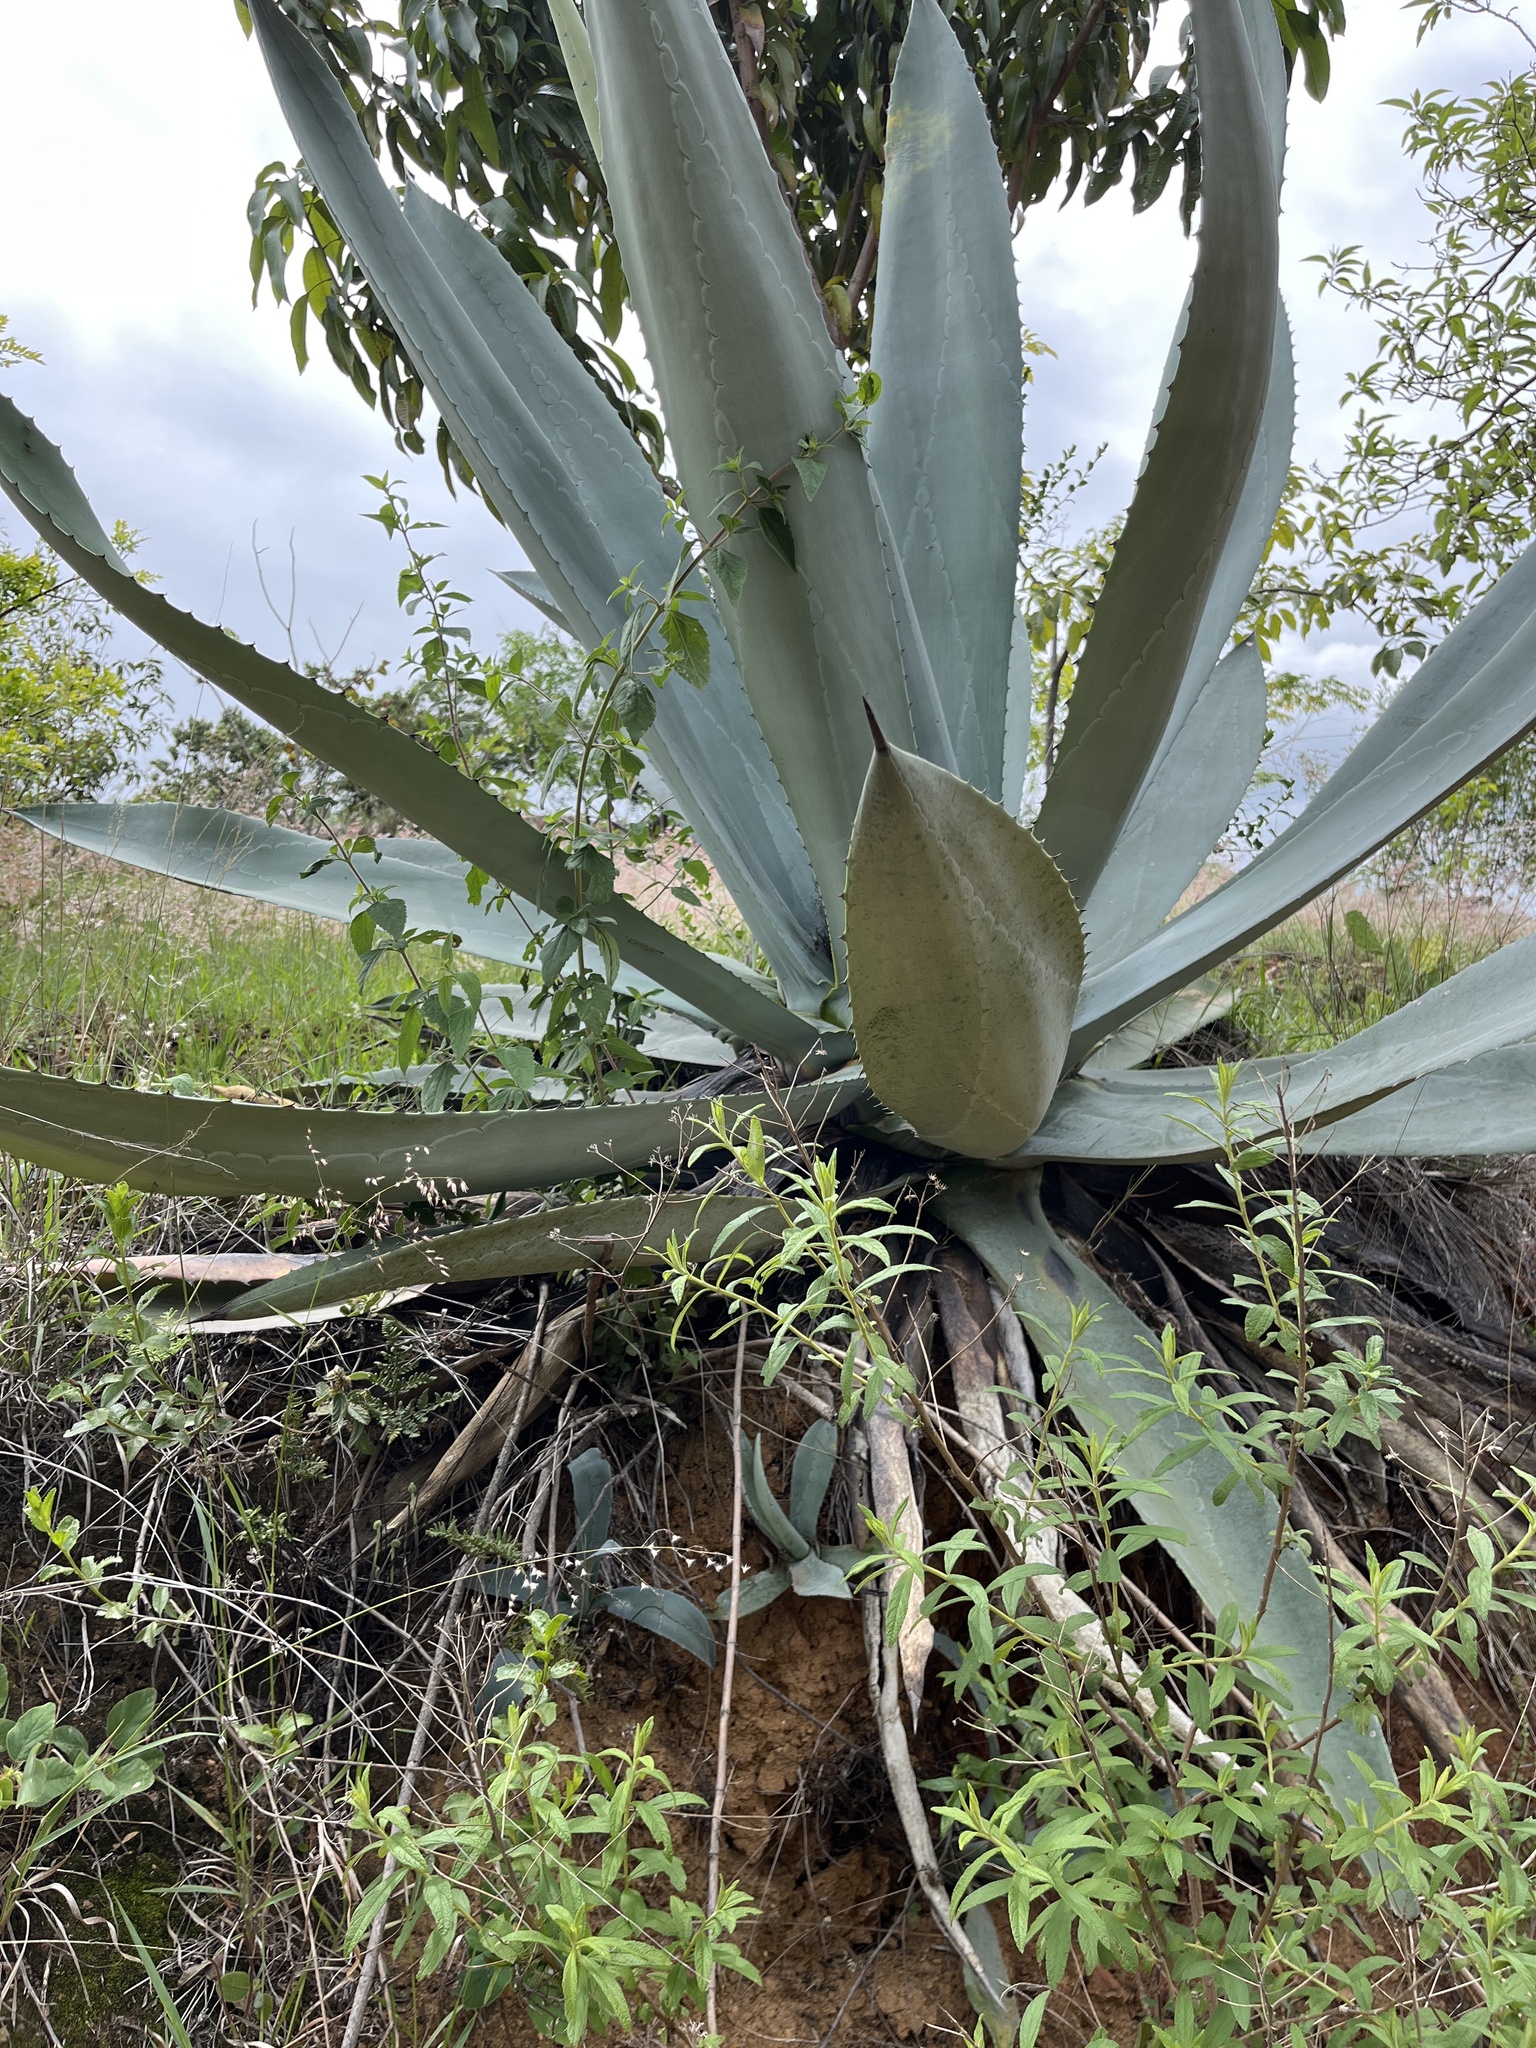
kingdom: Plantae
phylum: Tracheophyta
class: Liliopsida
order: Asparagales
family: Asparagaceae
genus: Agave
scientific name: Agave americana
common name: Centuryplant
